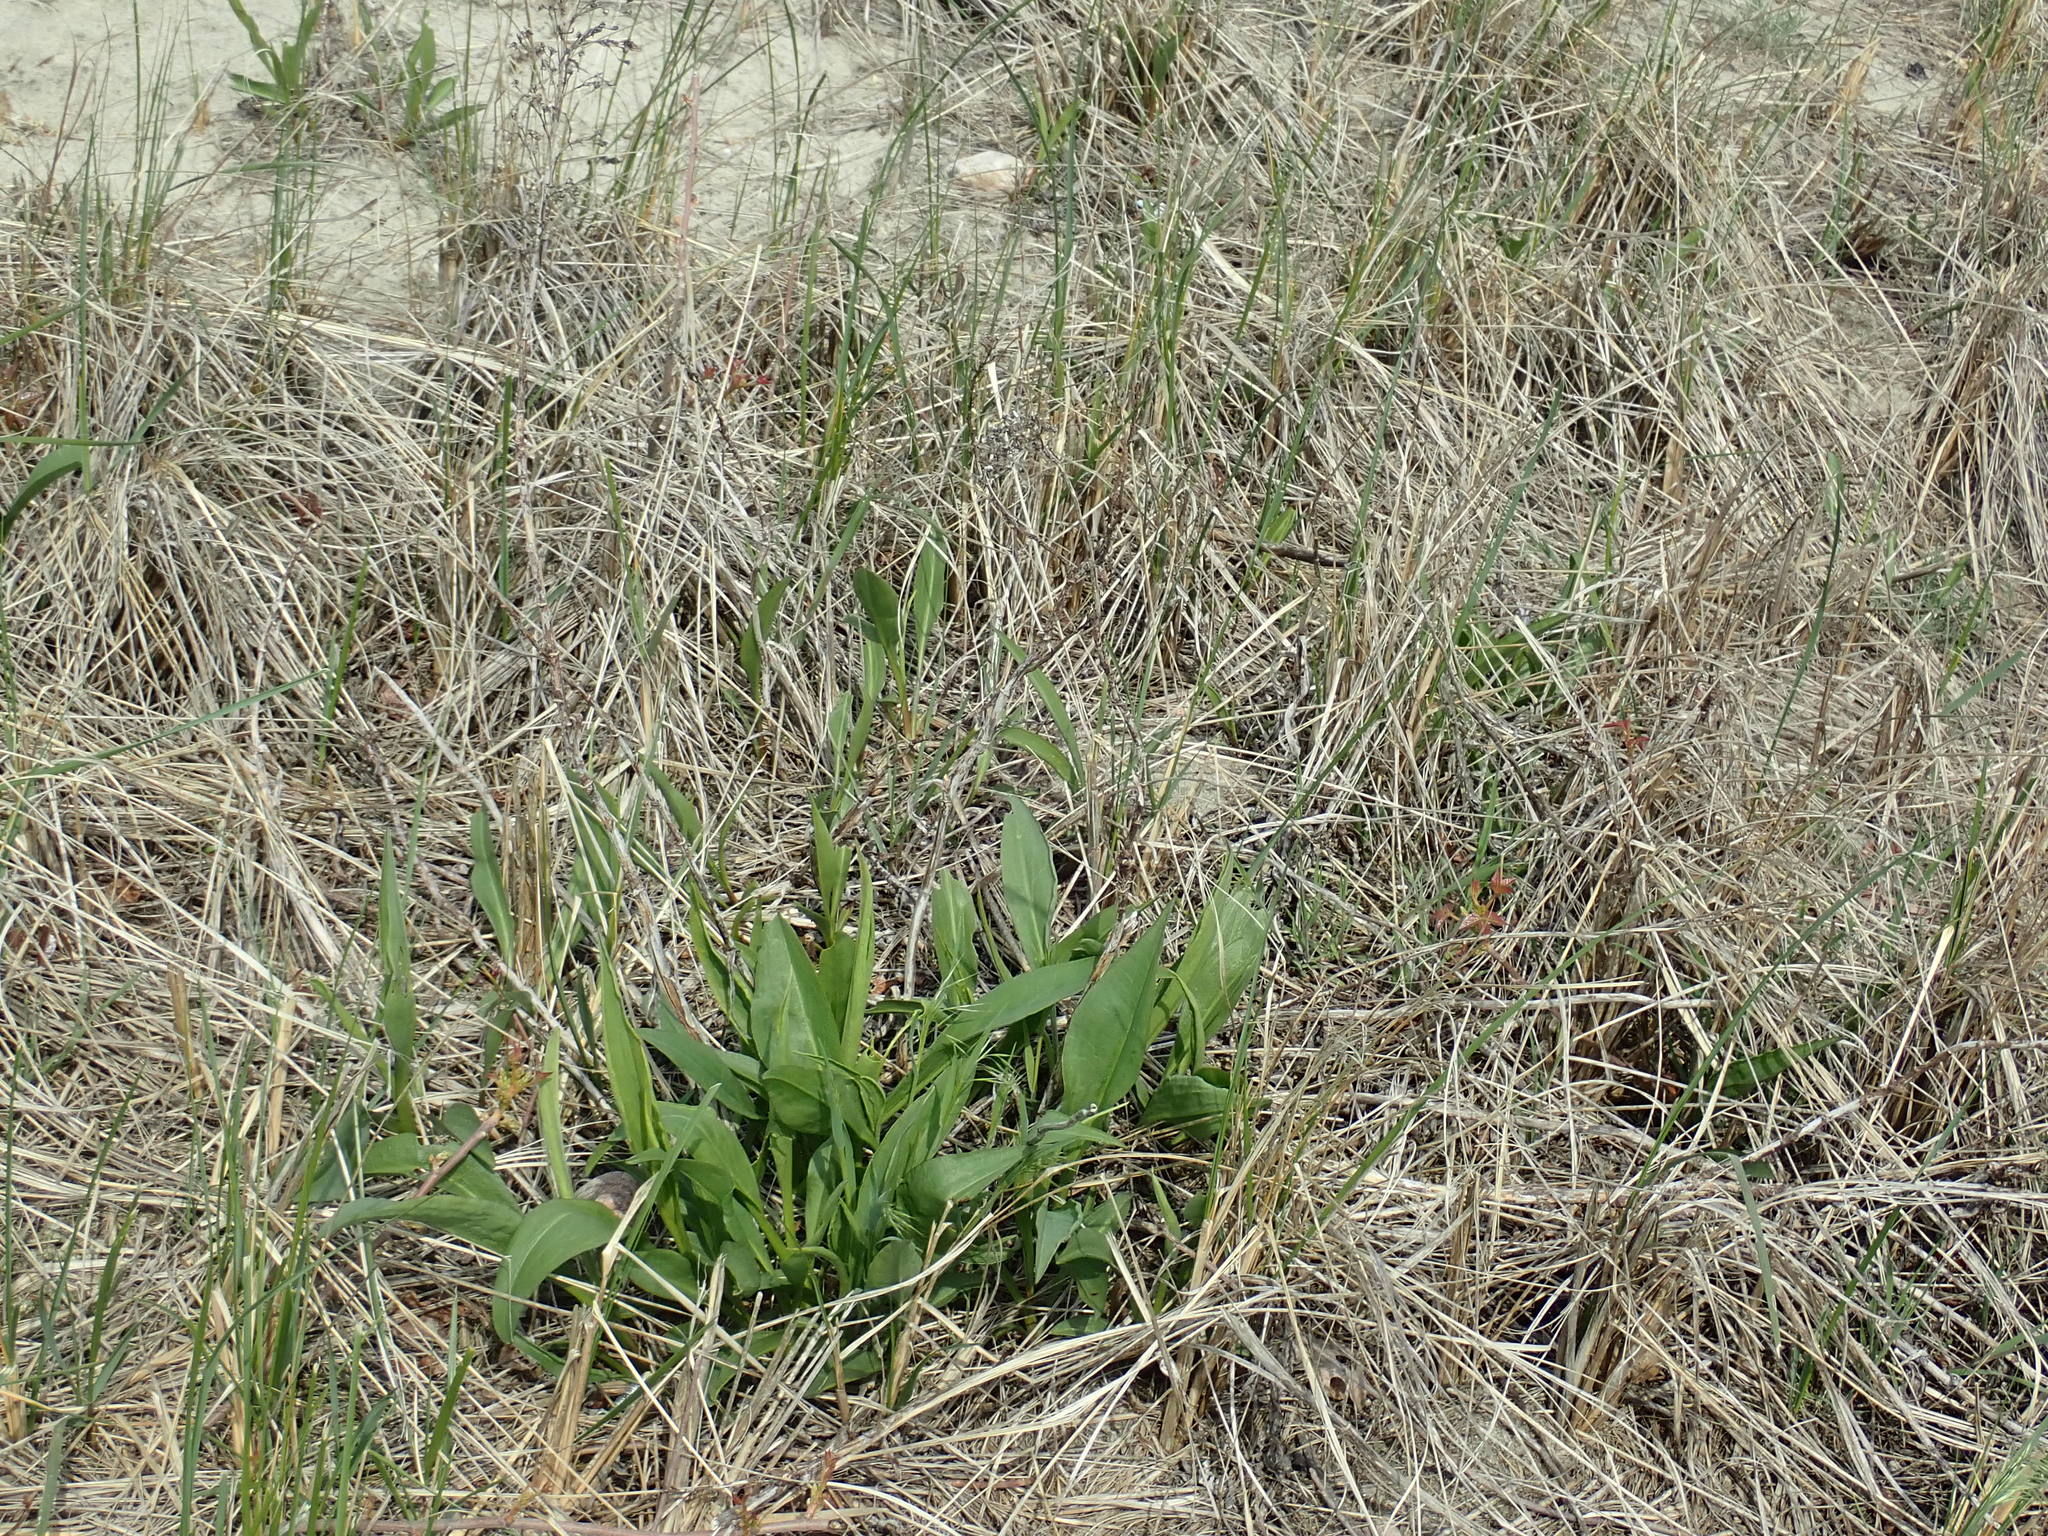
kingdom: Plantae
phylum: Tracheophyta
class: Magnoliopsida
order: Asterales
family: Asteraceae
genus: Solidago
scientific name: Solidago sempervirens
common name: Salt-marsh goldenrod
